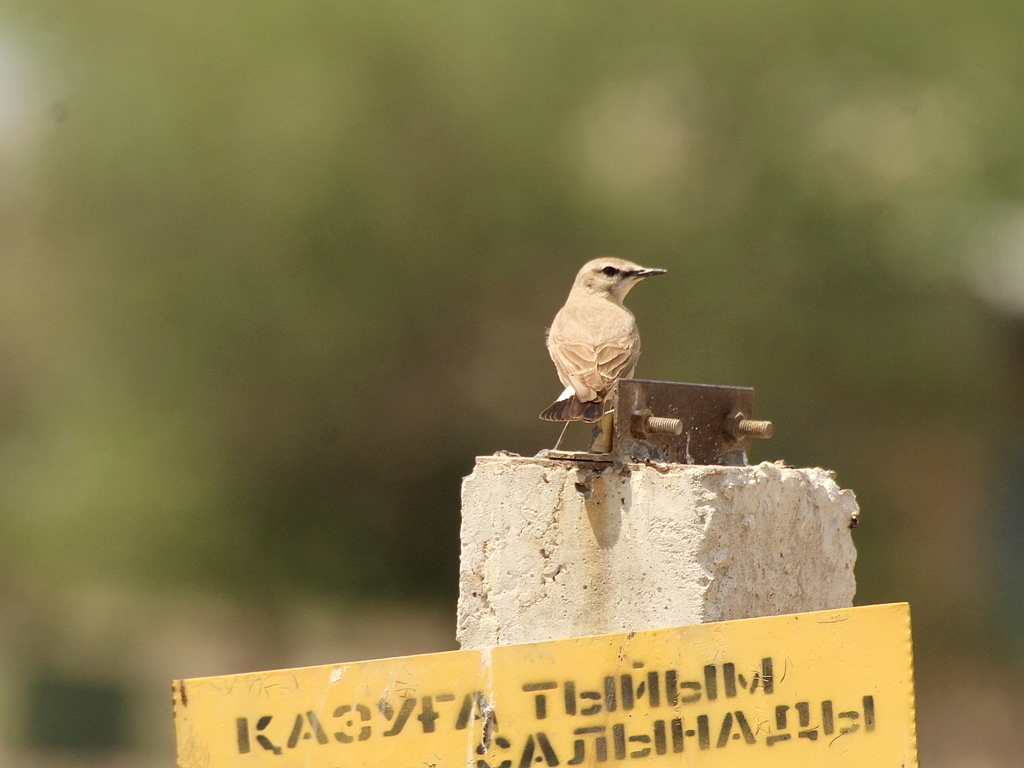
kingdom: Animalia
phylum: Chordata
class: Aves
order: Passeriformes
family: Muscicapidae
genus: Oenanthe
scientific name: Oenanthe isabellina
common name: Isabelline wheatear
